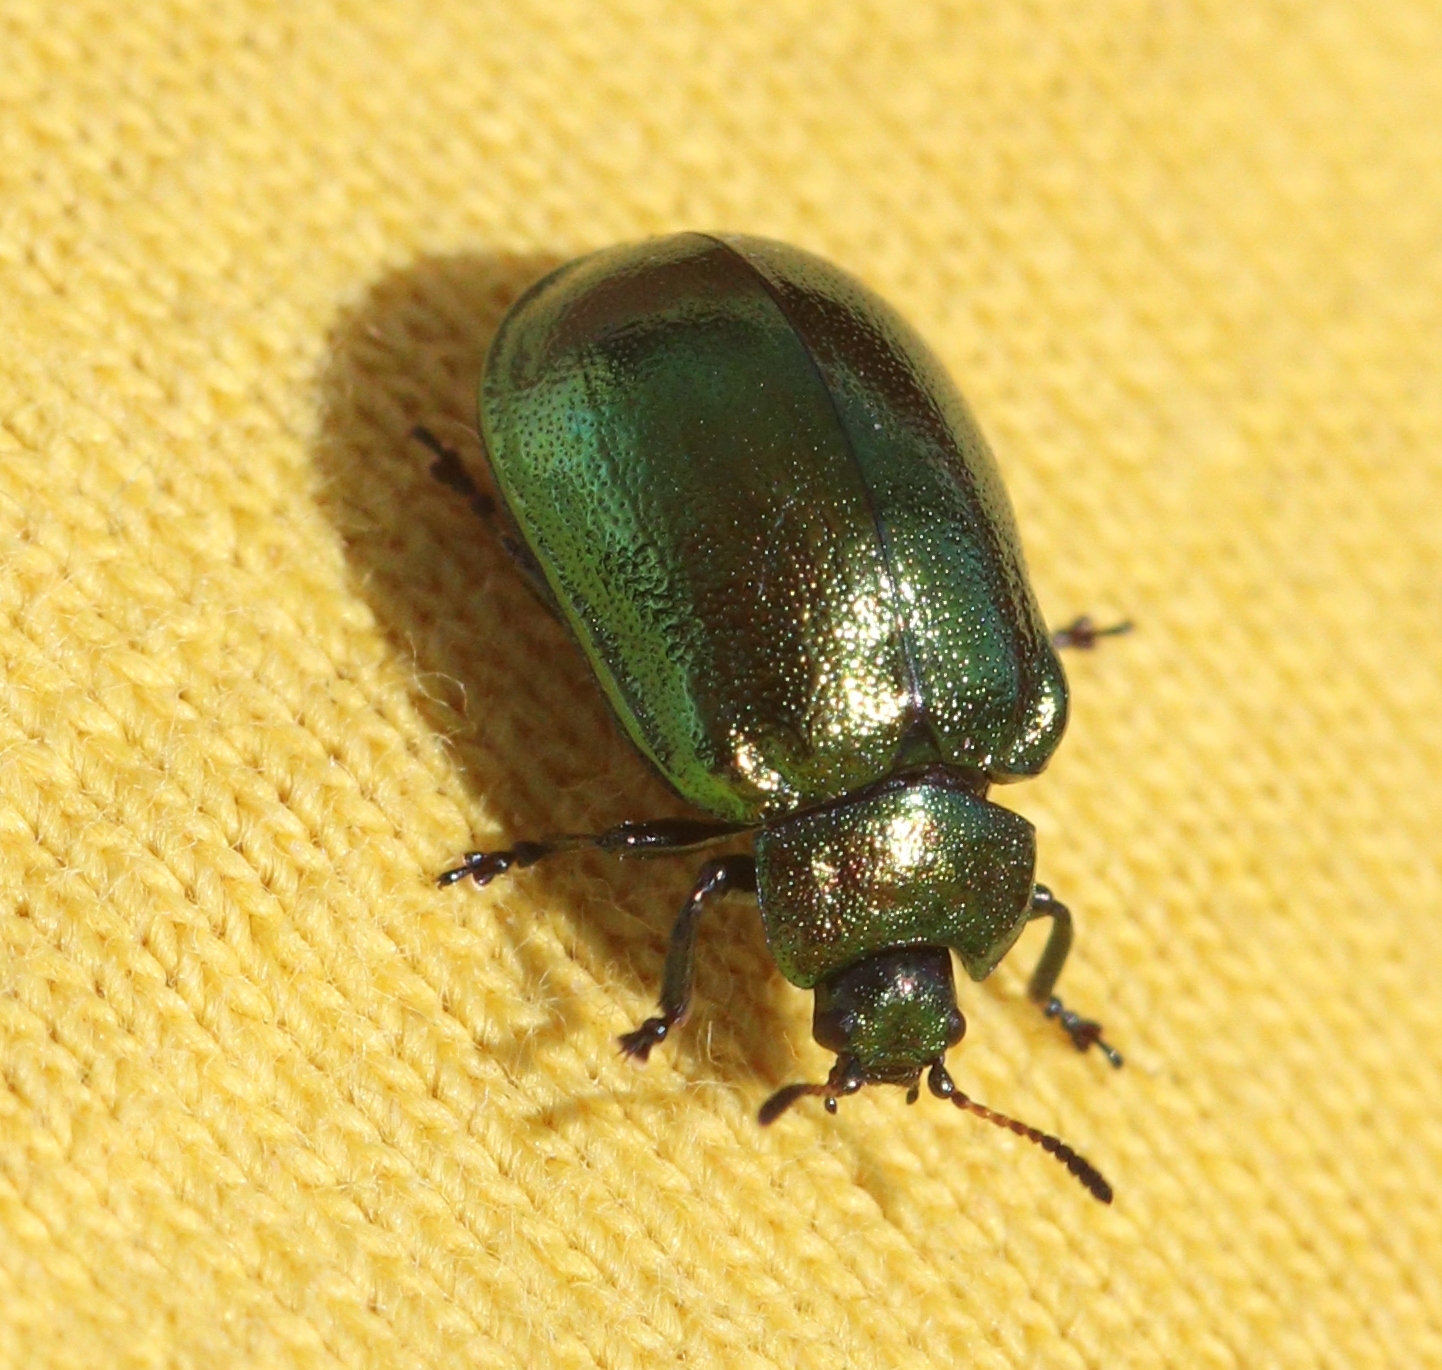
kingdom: Animalia
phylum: Arthropoda
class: Insecta
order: Coleoptera
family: Chrysomelidae
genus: Plagiosterna
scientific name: Plagiosterna aenea
